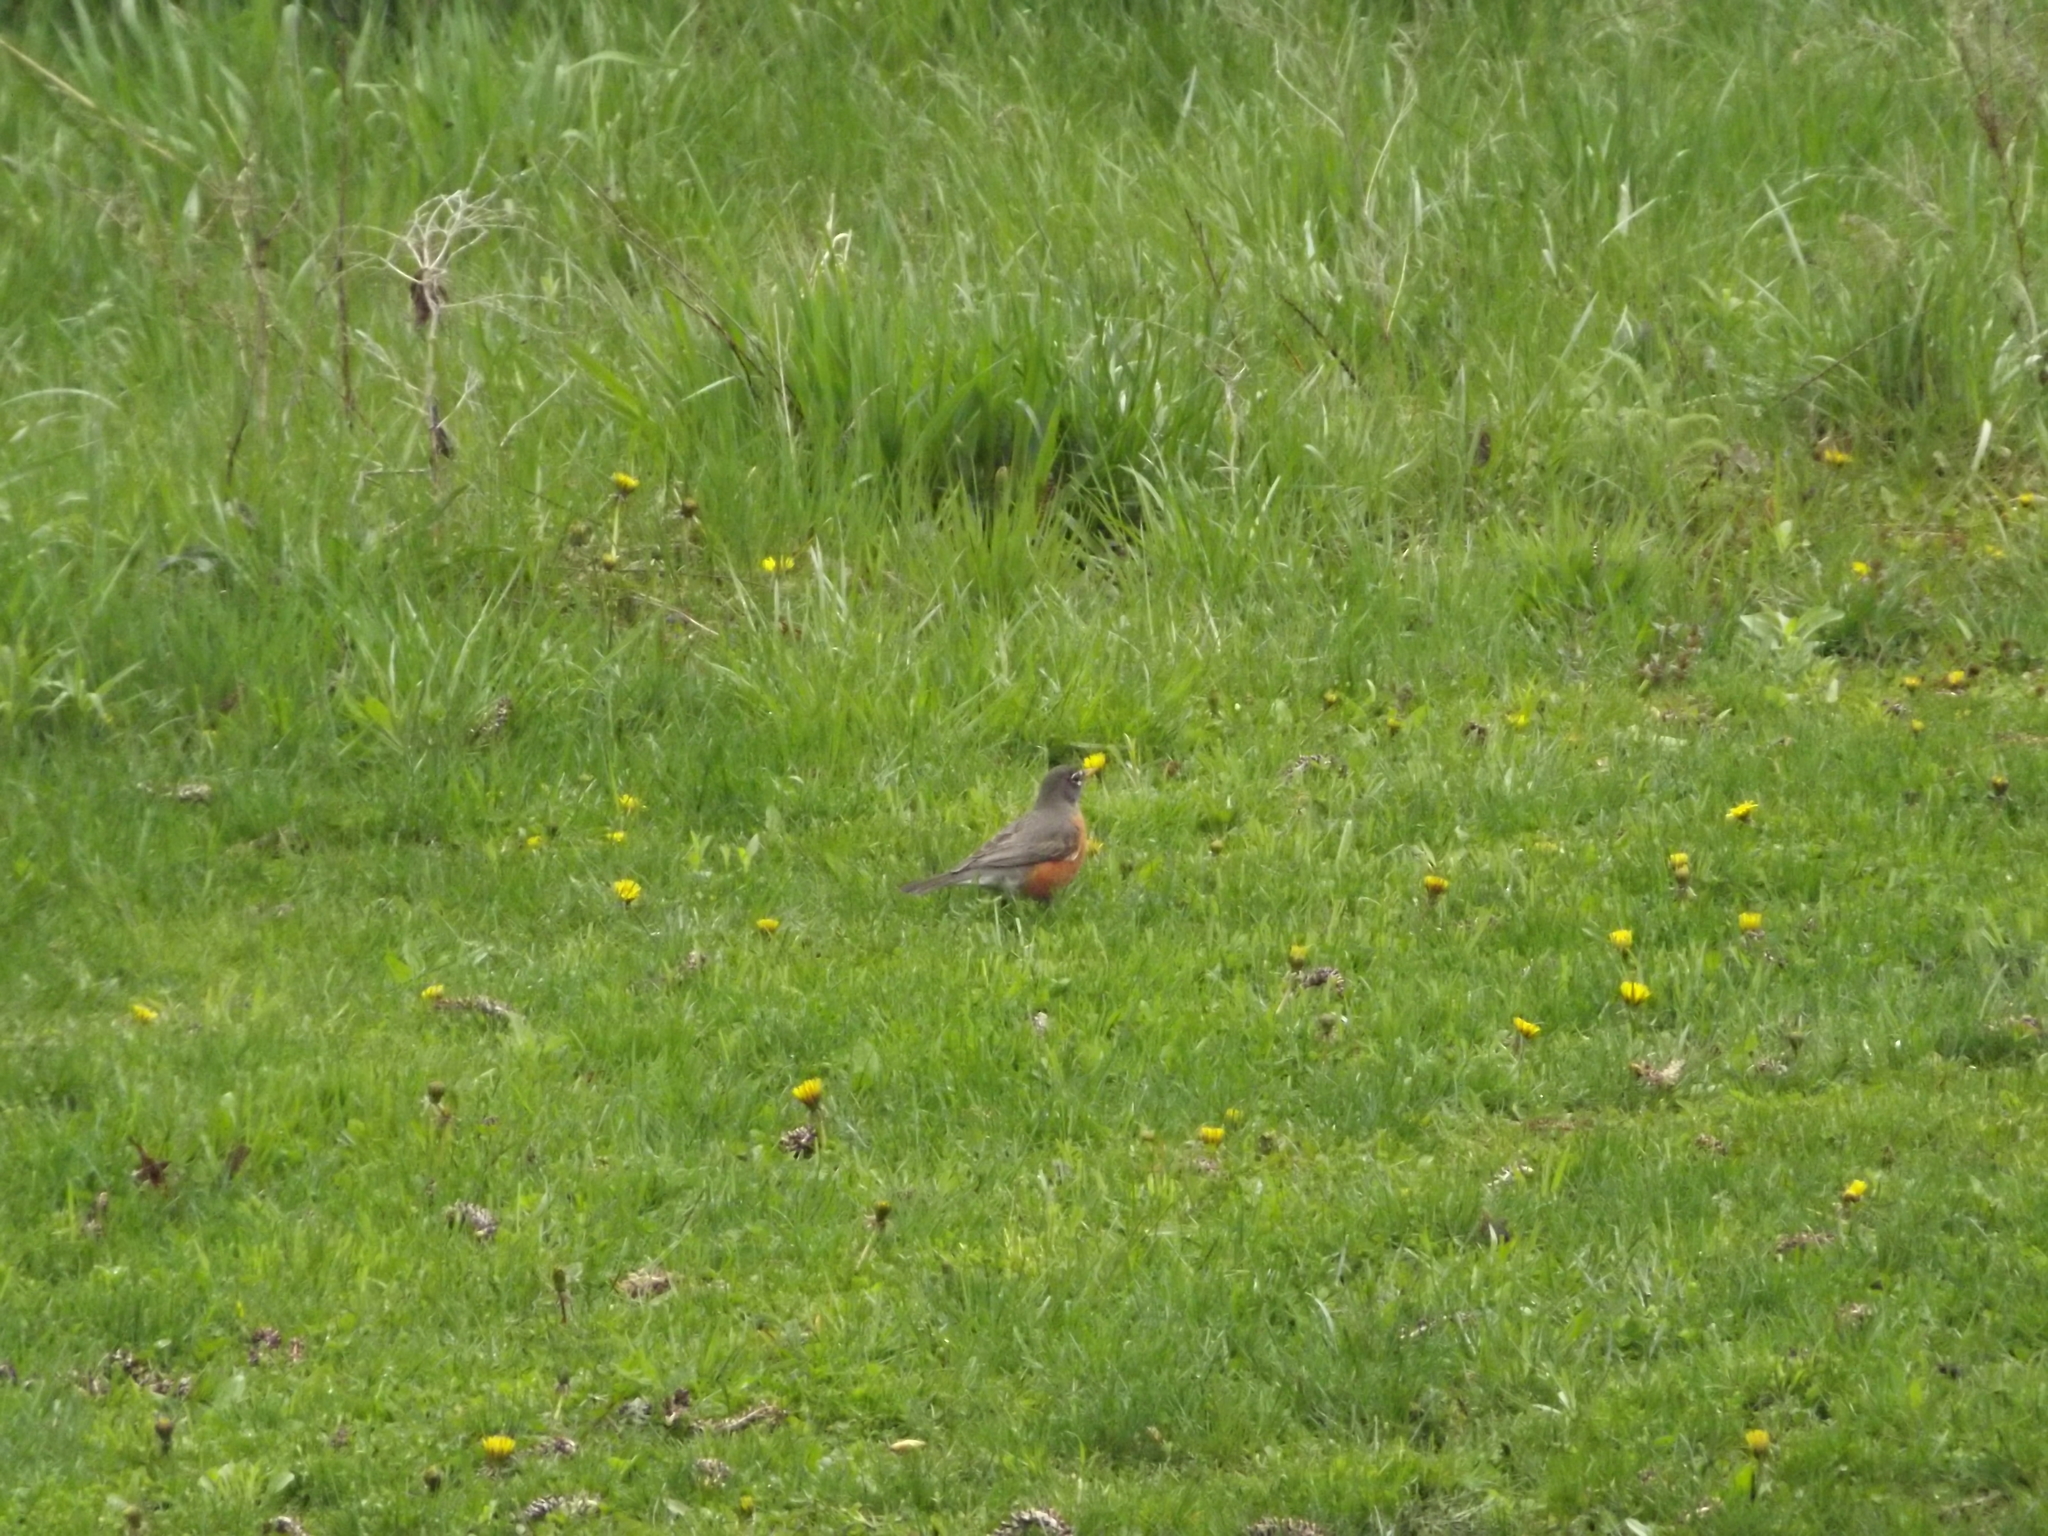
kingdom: Animalia
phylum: Chordata
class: Aves
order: Passeriformes
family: Turdidae
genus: Turdus
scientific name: Turdus migratorius
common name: American robin
